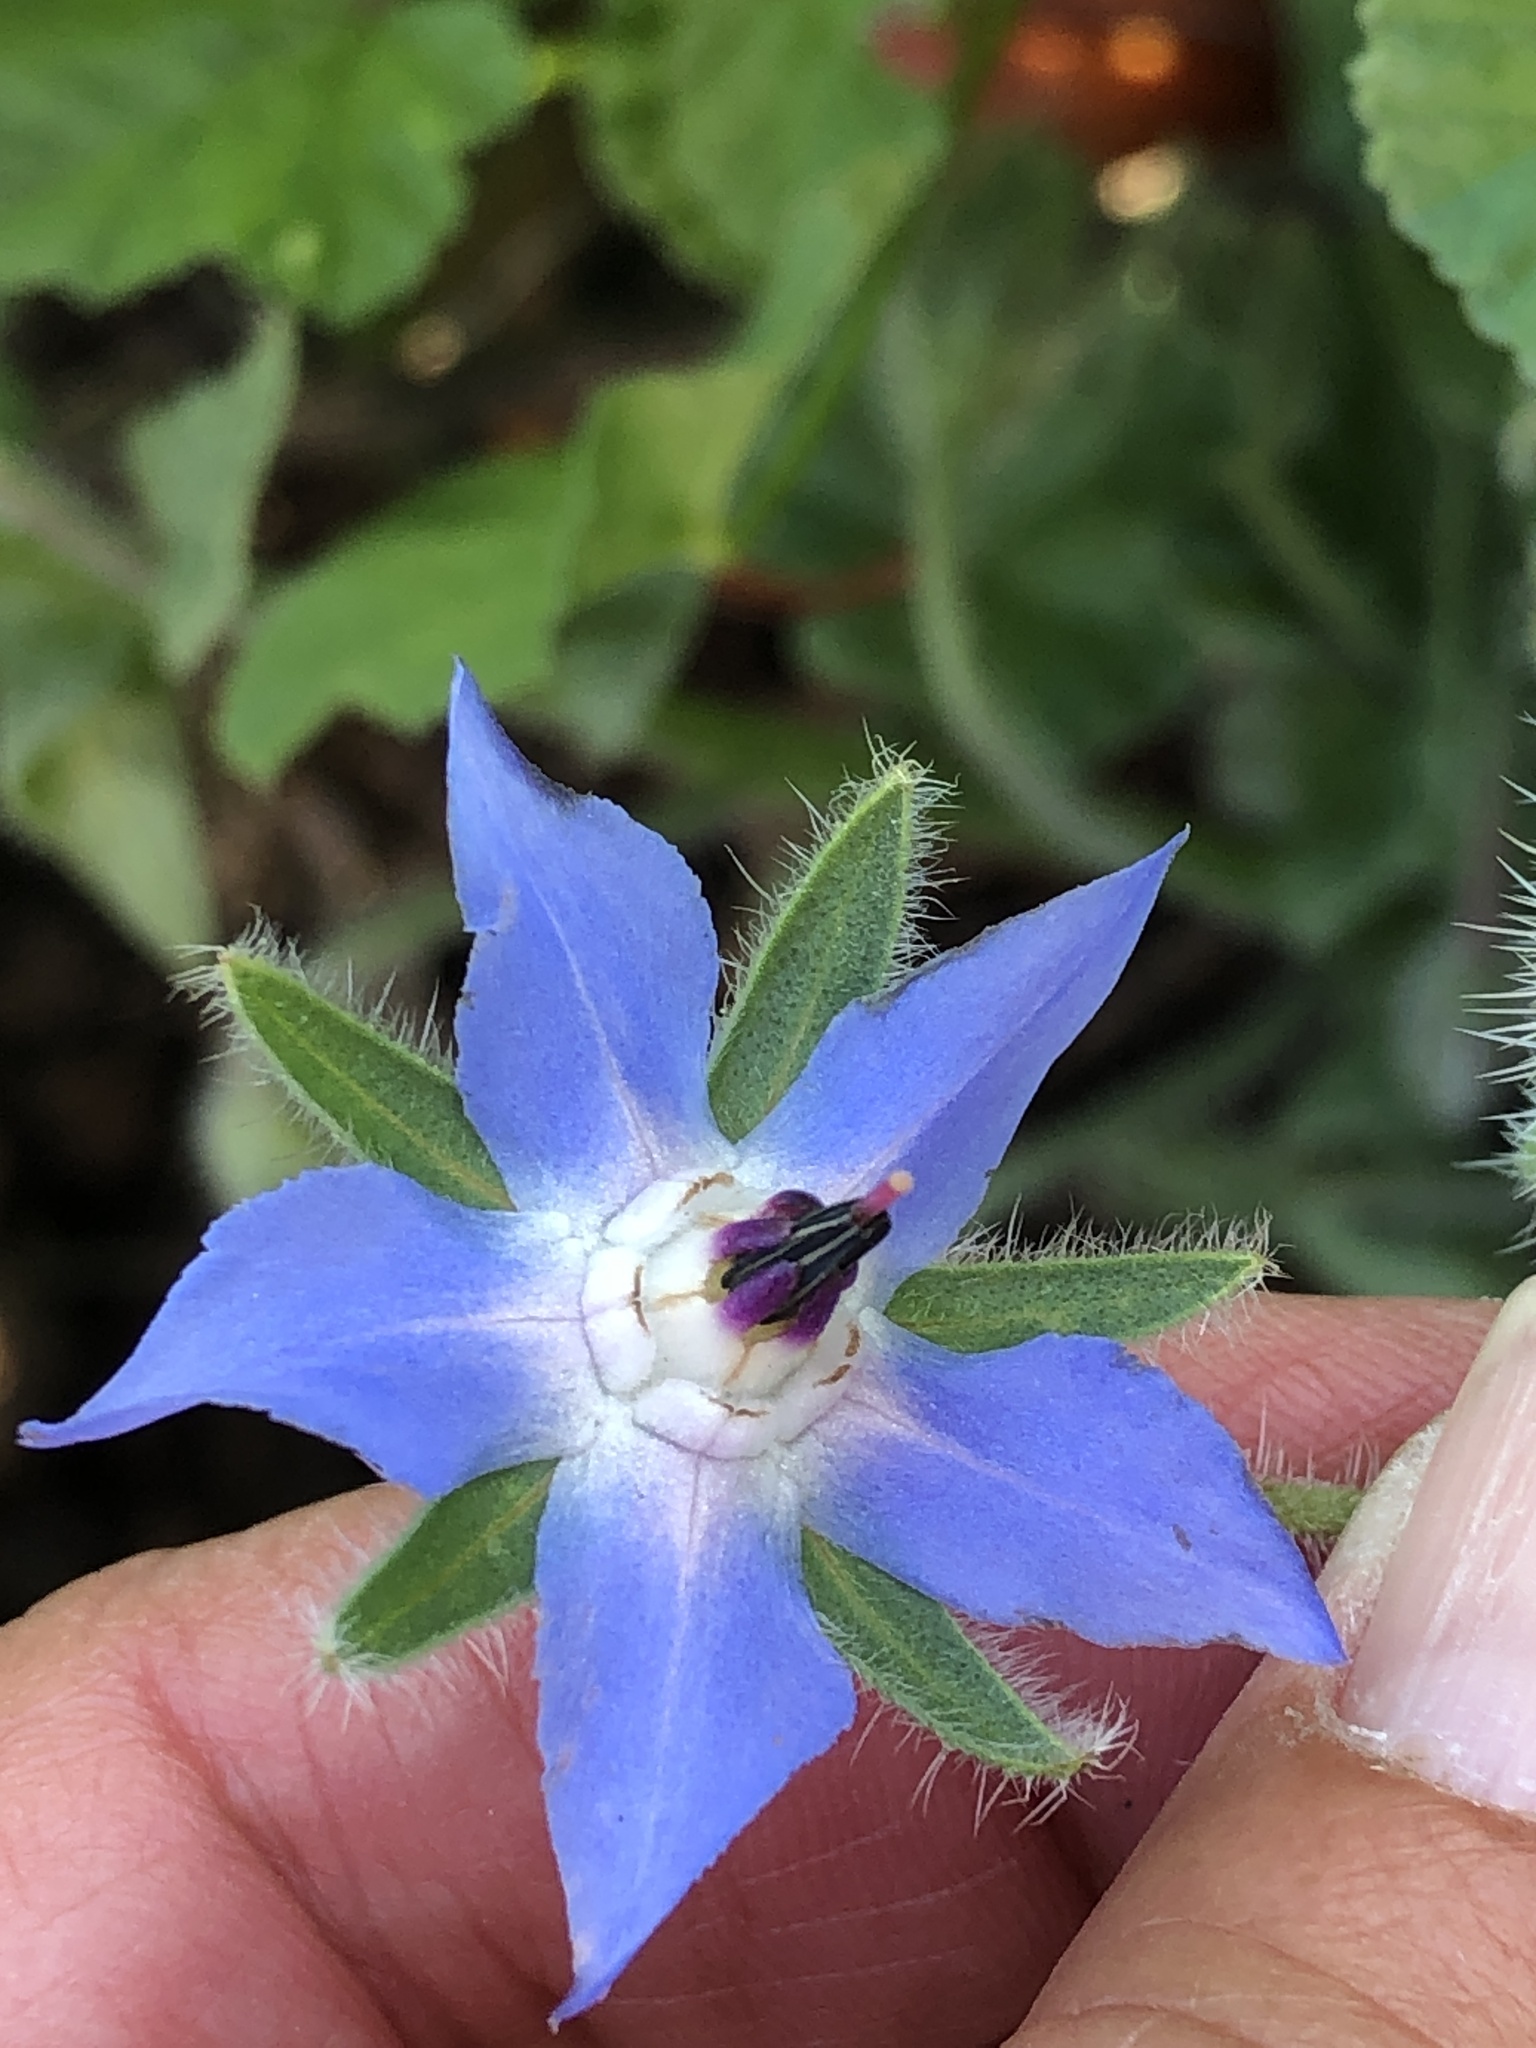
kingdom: Plantae
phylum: Tracheophyta
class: Magnoliopsida
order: Boraginales
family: Boraginaceae
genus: Borago
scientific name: Borago officinalis
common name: Borage
